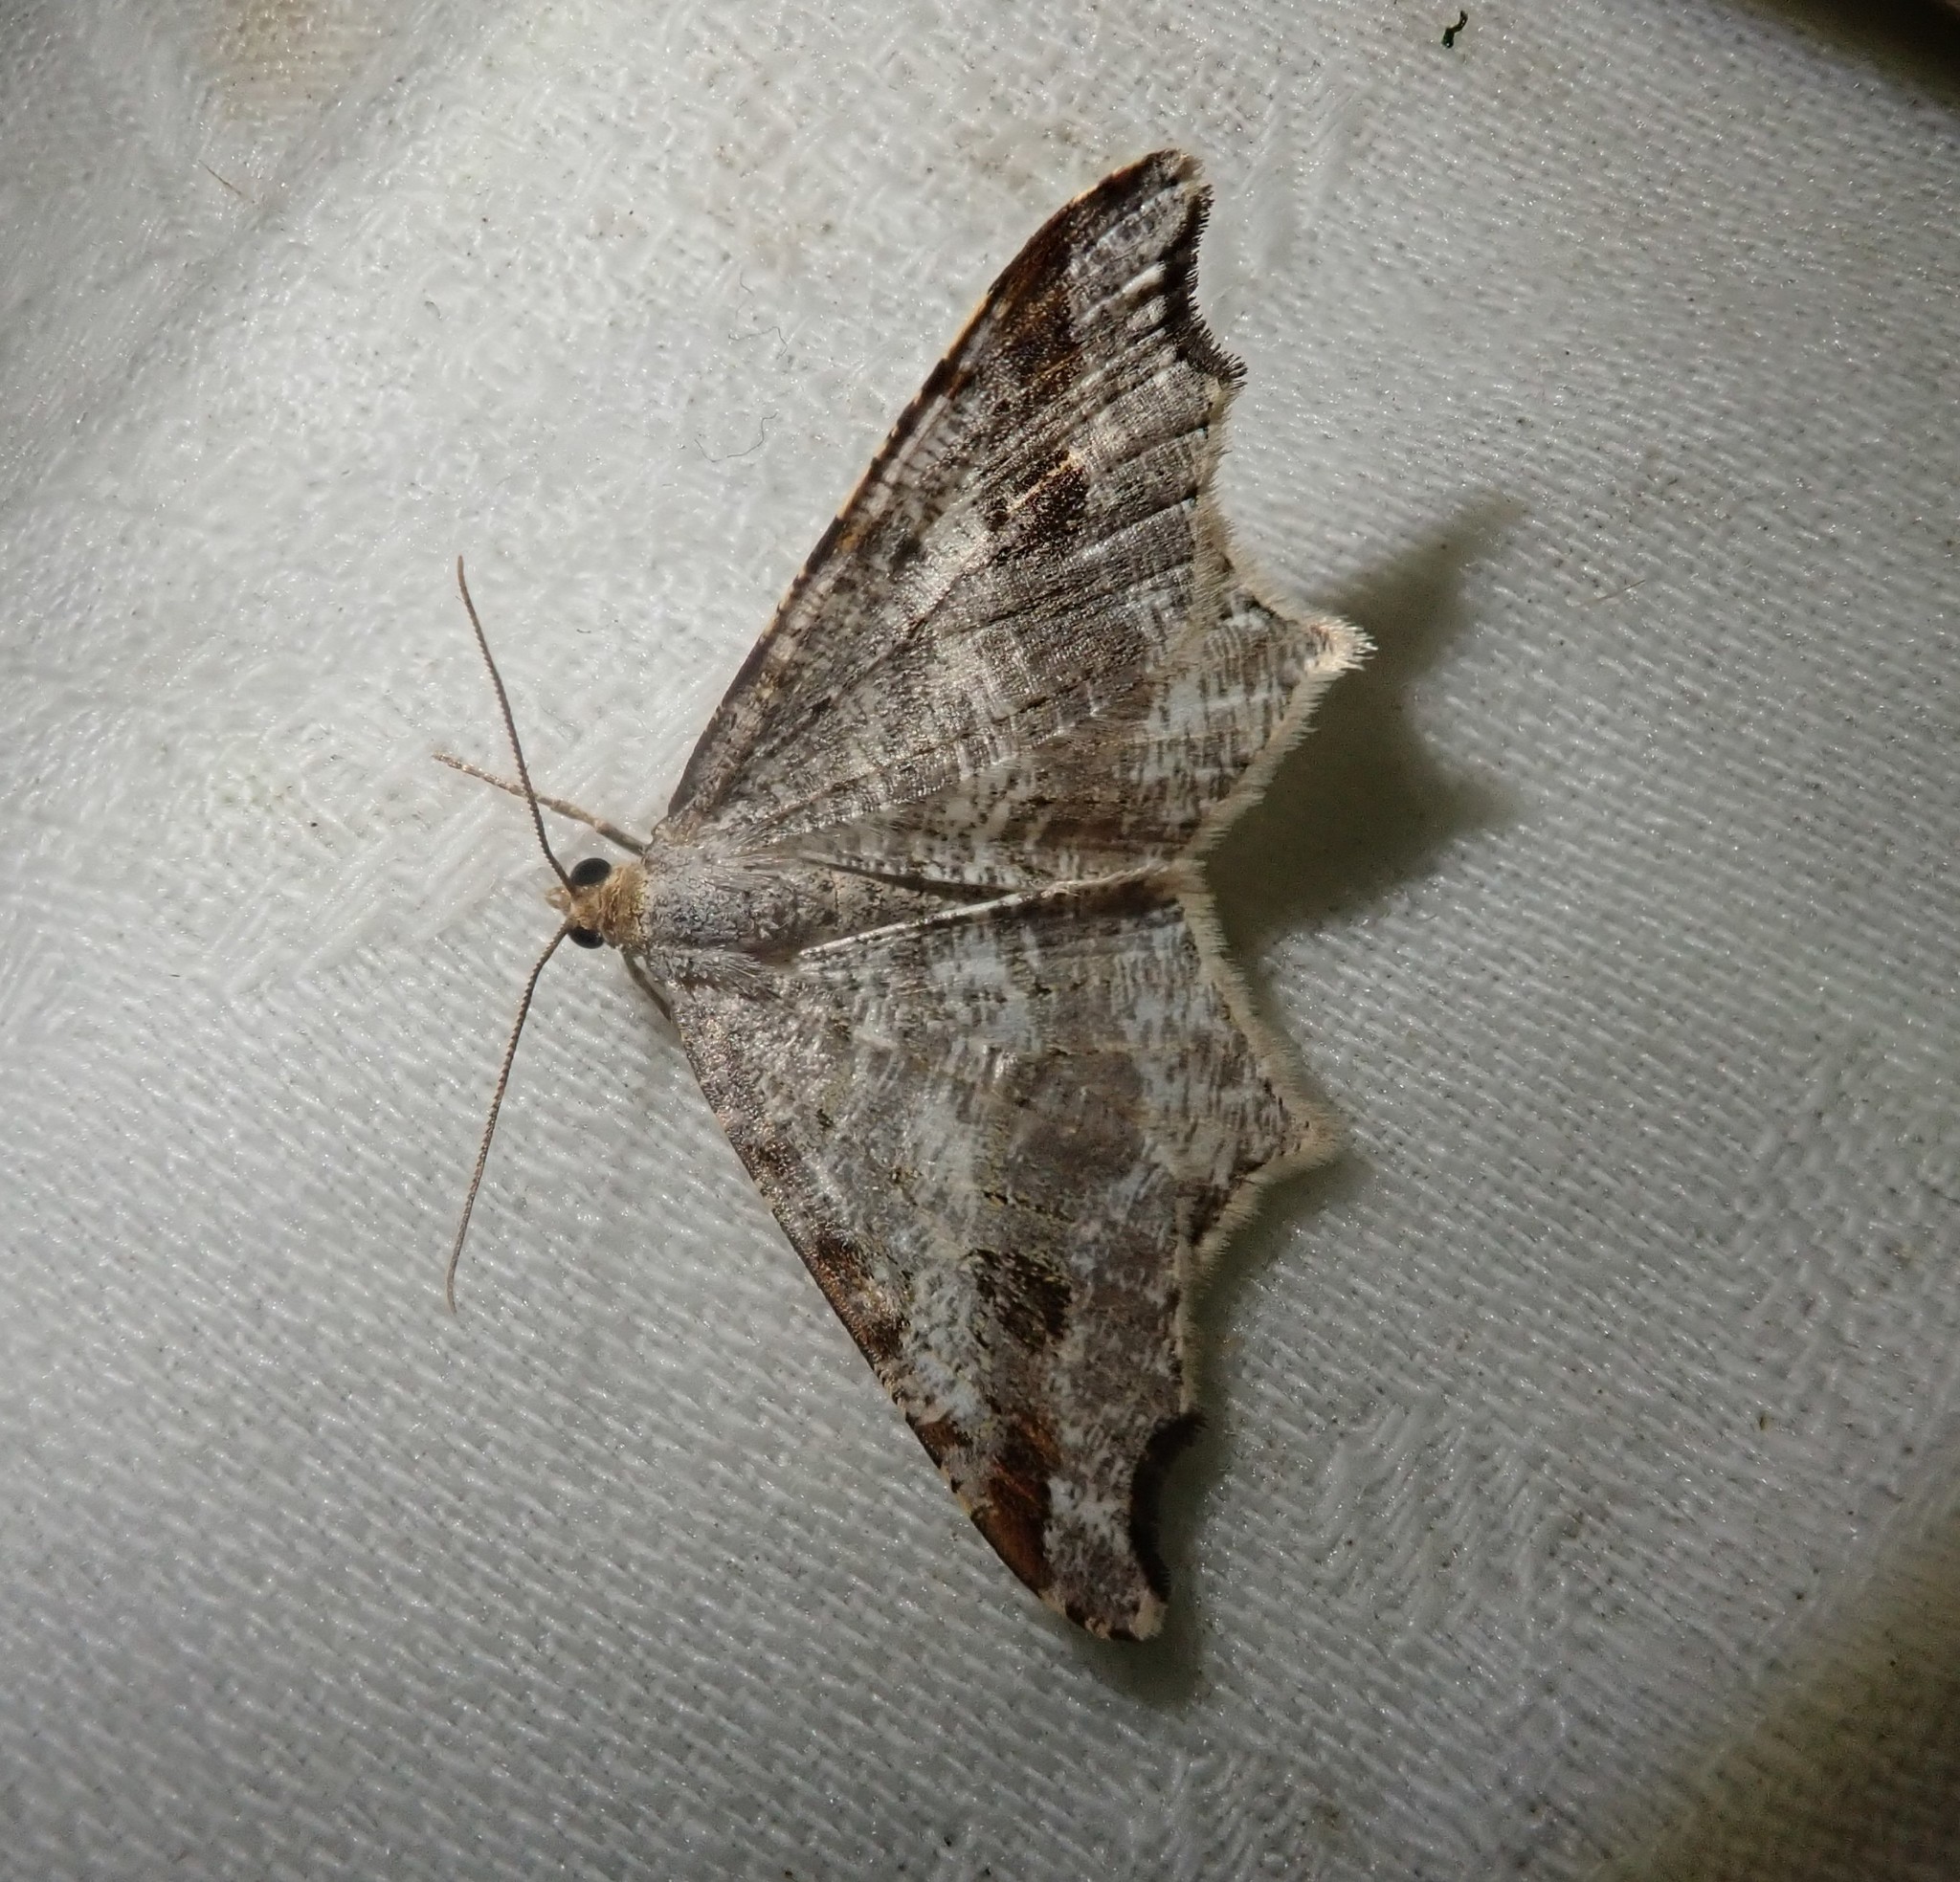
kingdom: Animalia
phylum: Arthropoda
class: Insecta
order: Lepidoptera
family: Geometridae
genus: Macaria
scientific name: Macaria alternata
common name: Sharp-angled peacock
